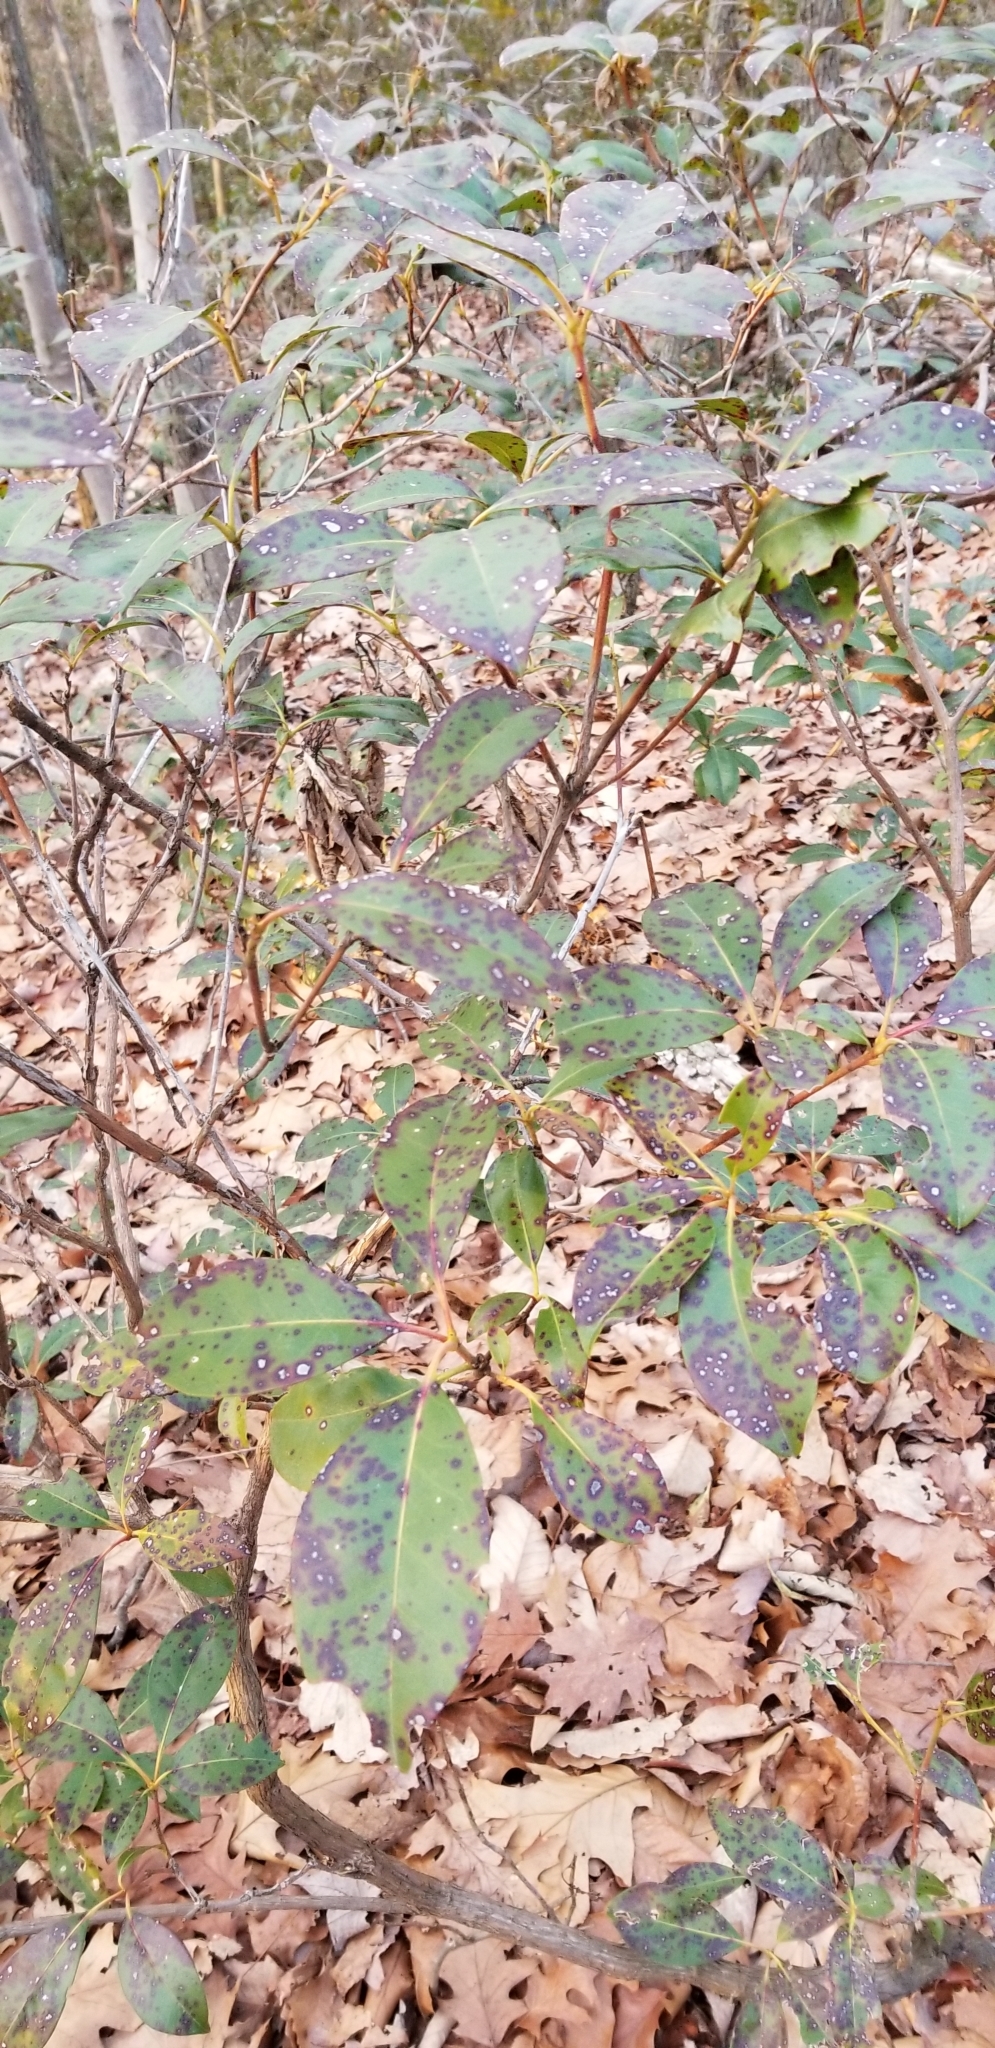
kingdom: Plantae
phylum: Tracheophyta
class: Magnoliopsida
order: Ericales
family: Ericaceae
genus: Kalmia
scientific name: Kalmia latifolia
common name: Mountain-laurel
